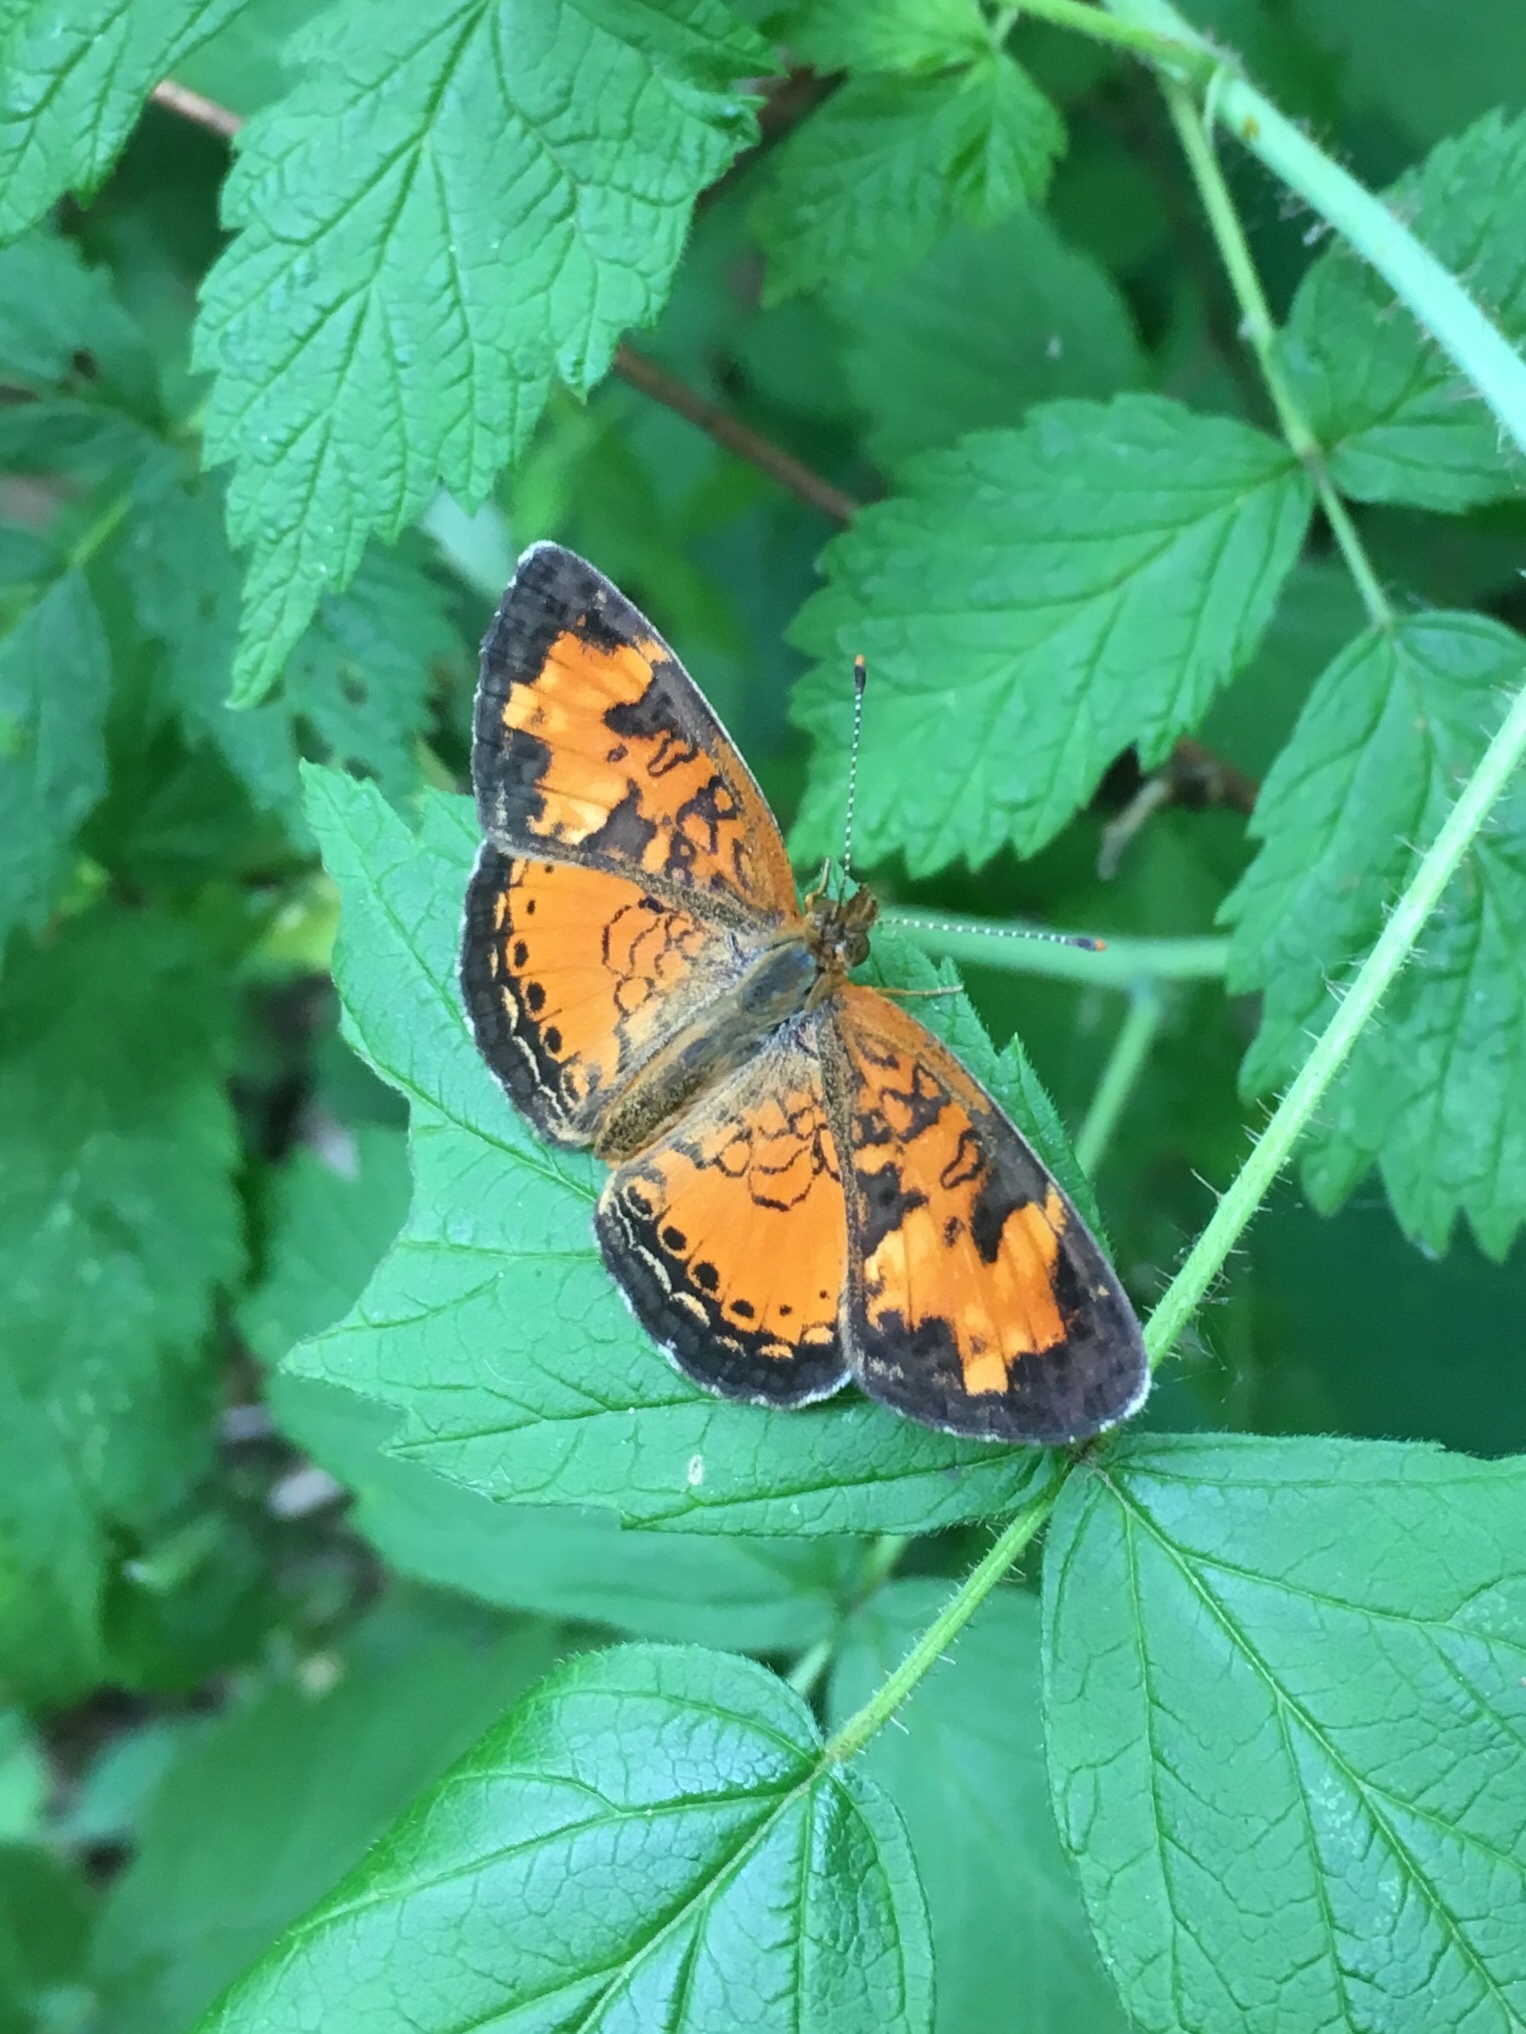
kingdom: Animalia
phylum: Arthropoda
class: Insecta
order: Lepidoptera
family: Nymphalidae
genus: Phyciodes
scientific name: Phyciodes tharos
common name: Pearl crescent
